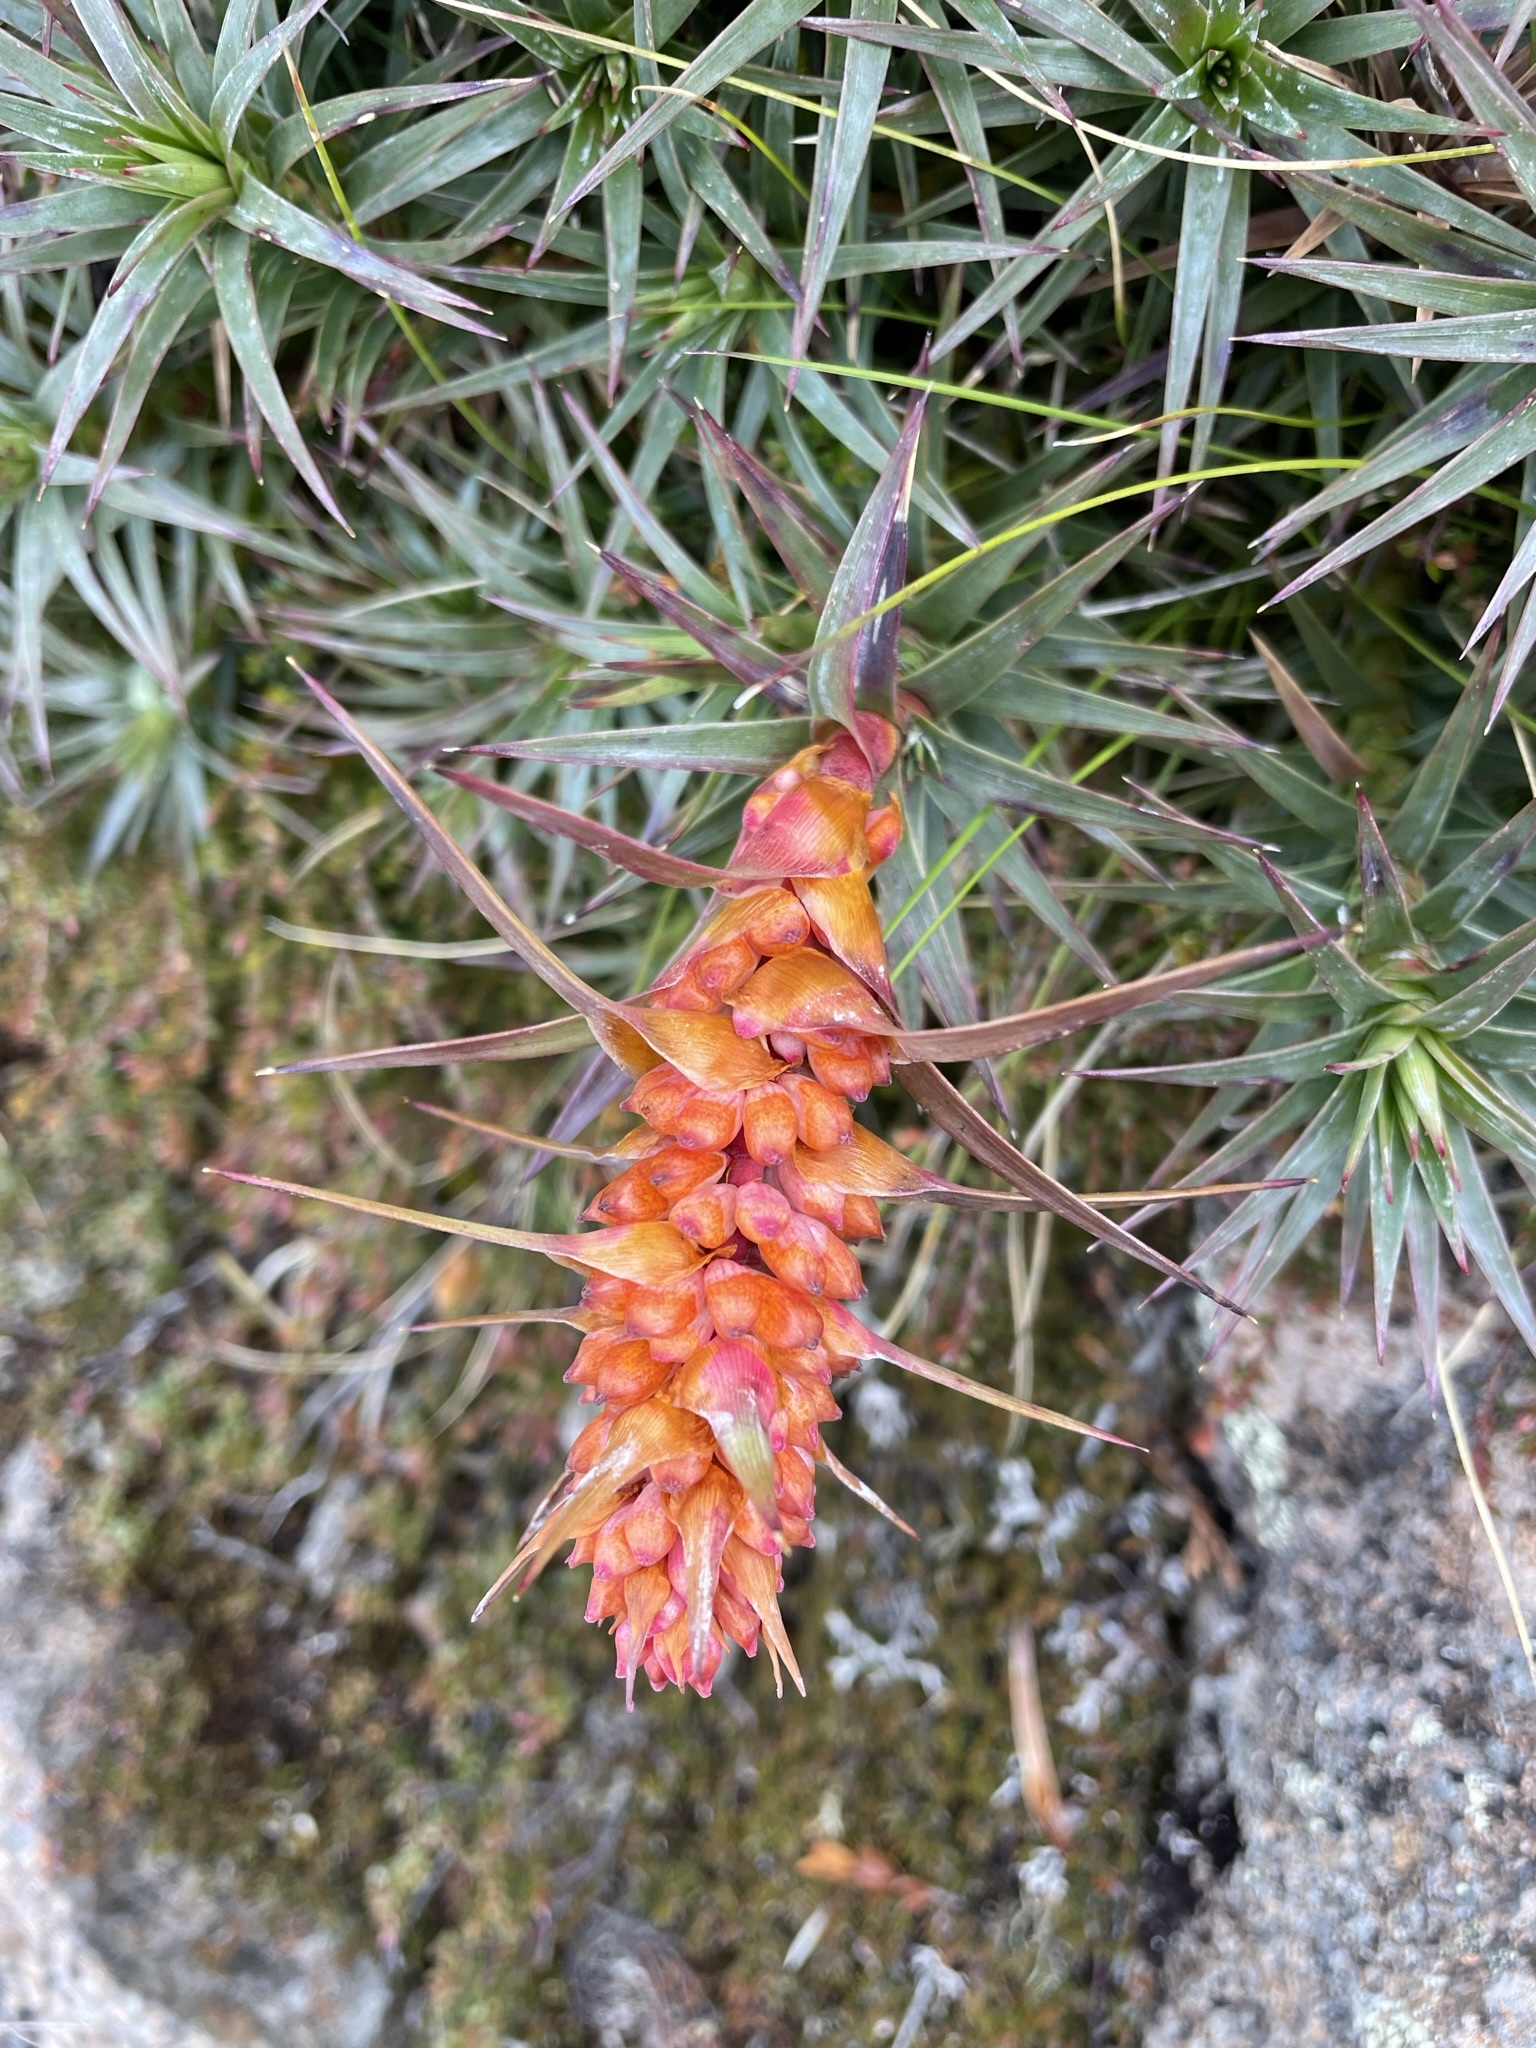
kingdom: Plantae
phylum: Tracheophyta
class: Magnoliopsida
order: Ericales
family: Ericaceae
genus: Dracophyllum
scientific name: Dracophyllum persistentifolium
